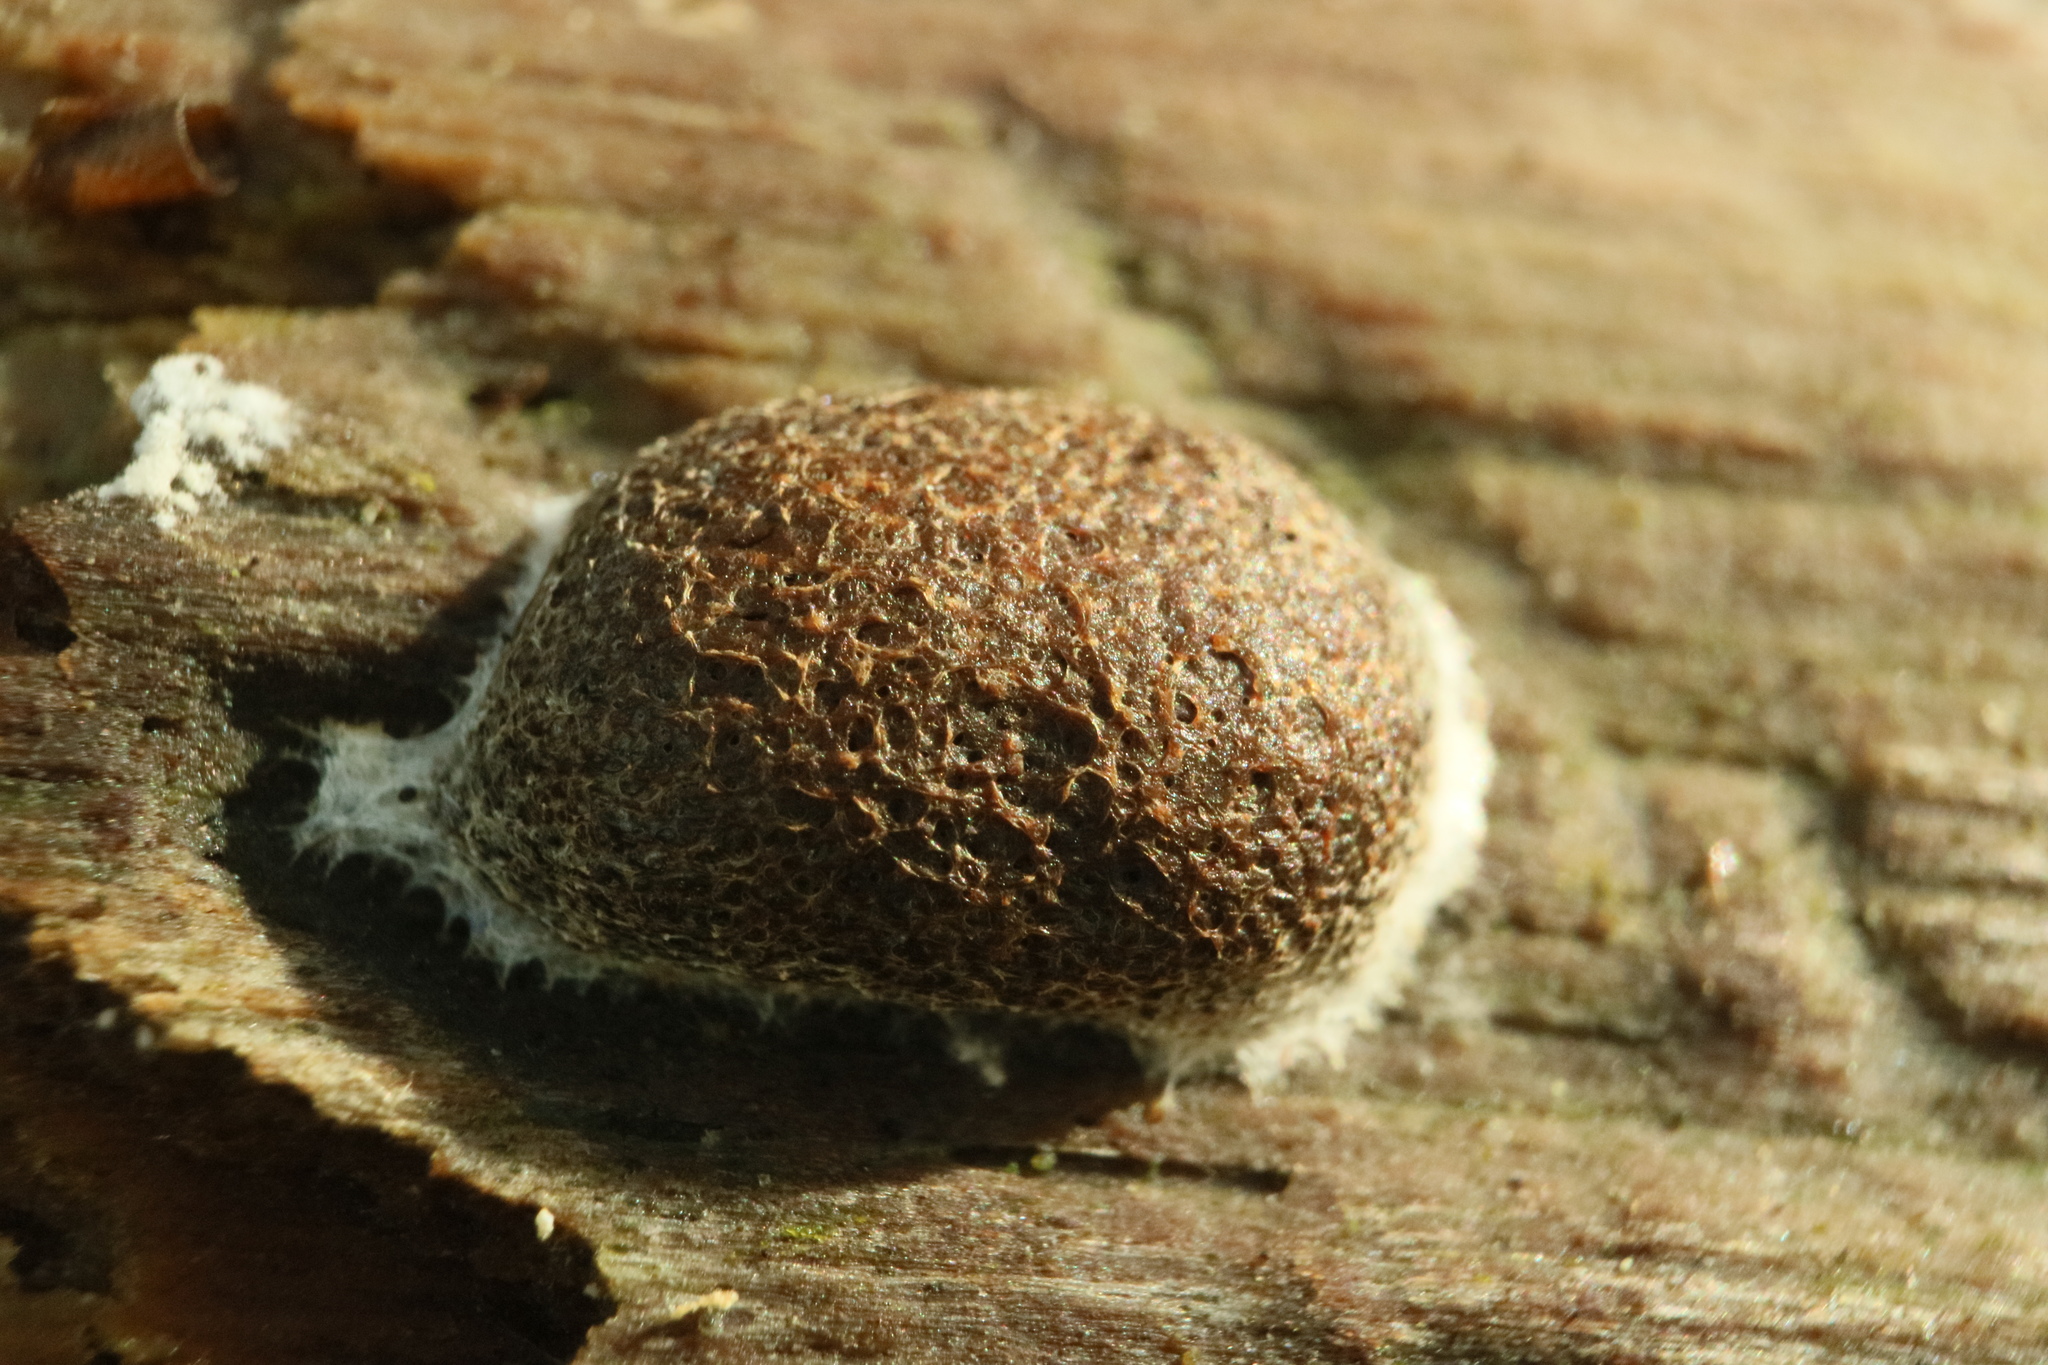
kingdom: Protozoa
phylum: Mycetozoa
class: Myxomycetes
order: Cribrariales
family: Tubiferaceae
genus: Reticularia
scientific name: Reticularia jurana
